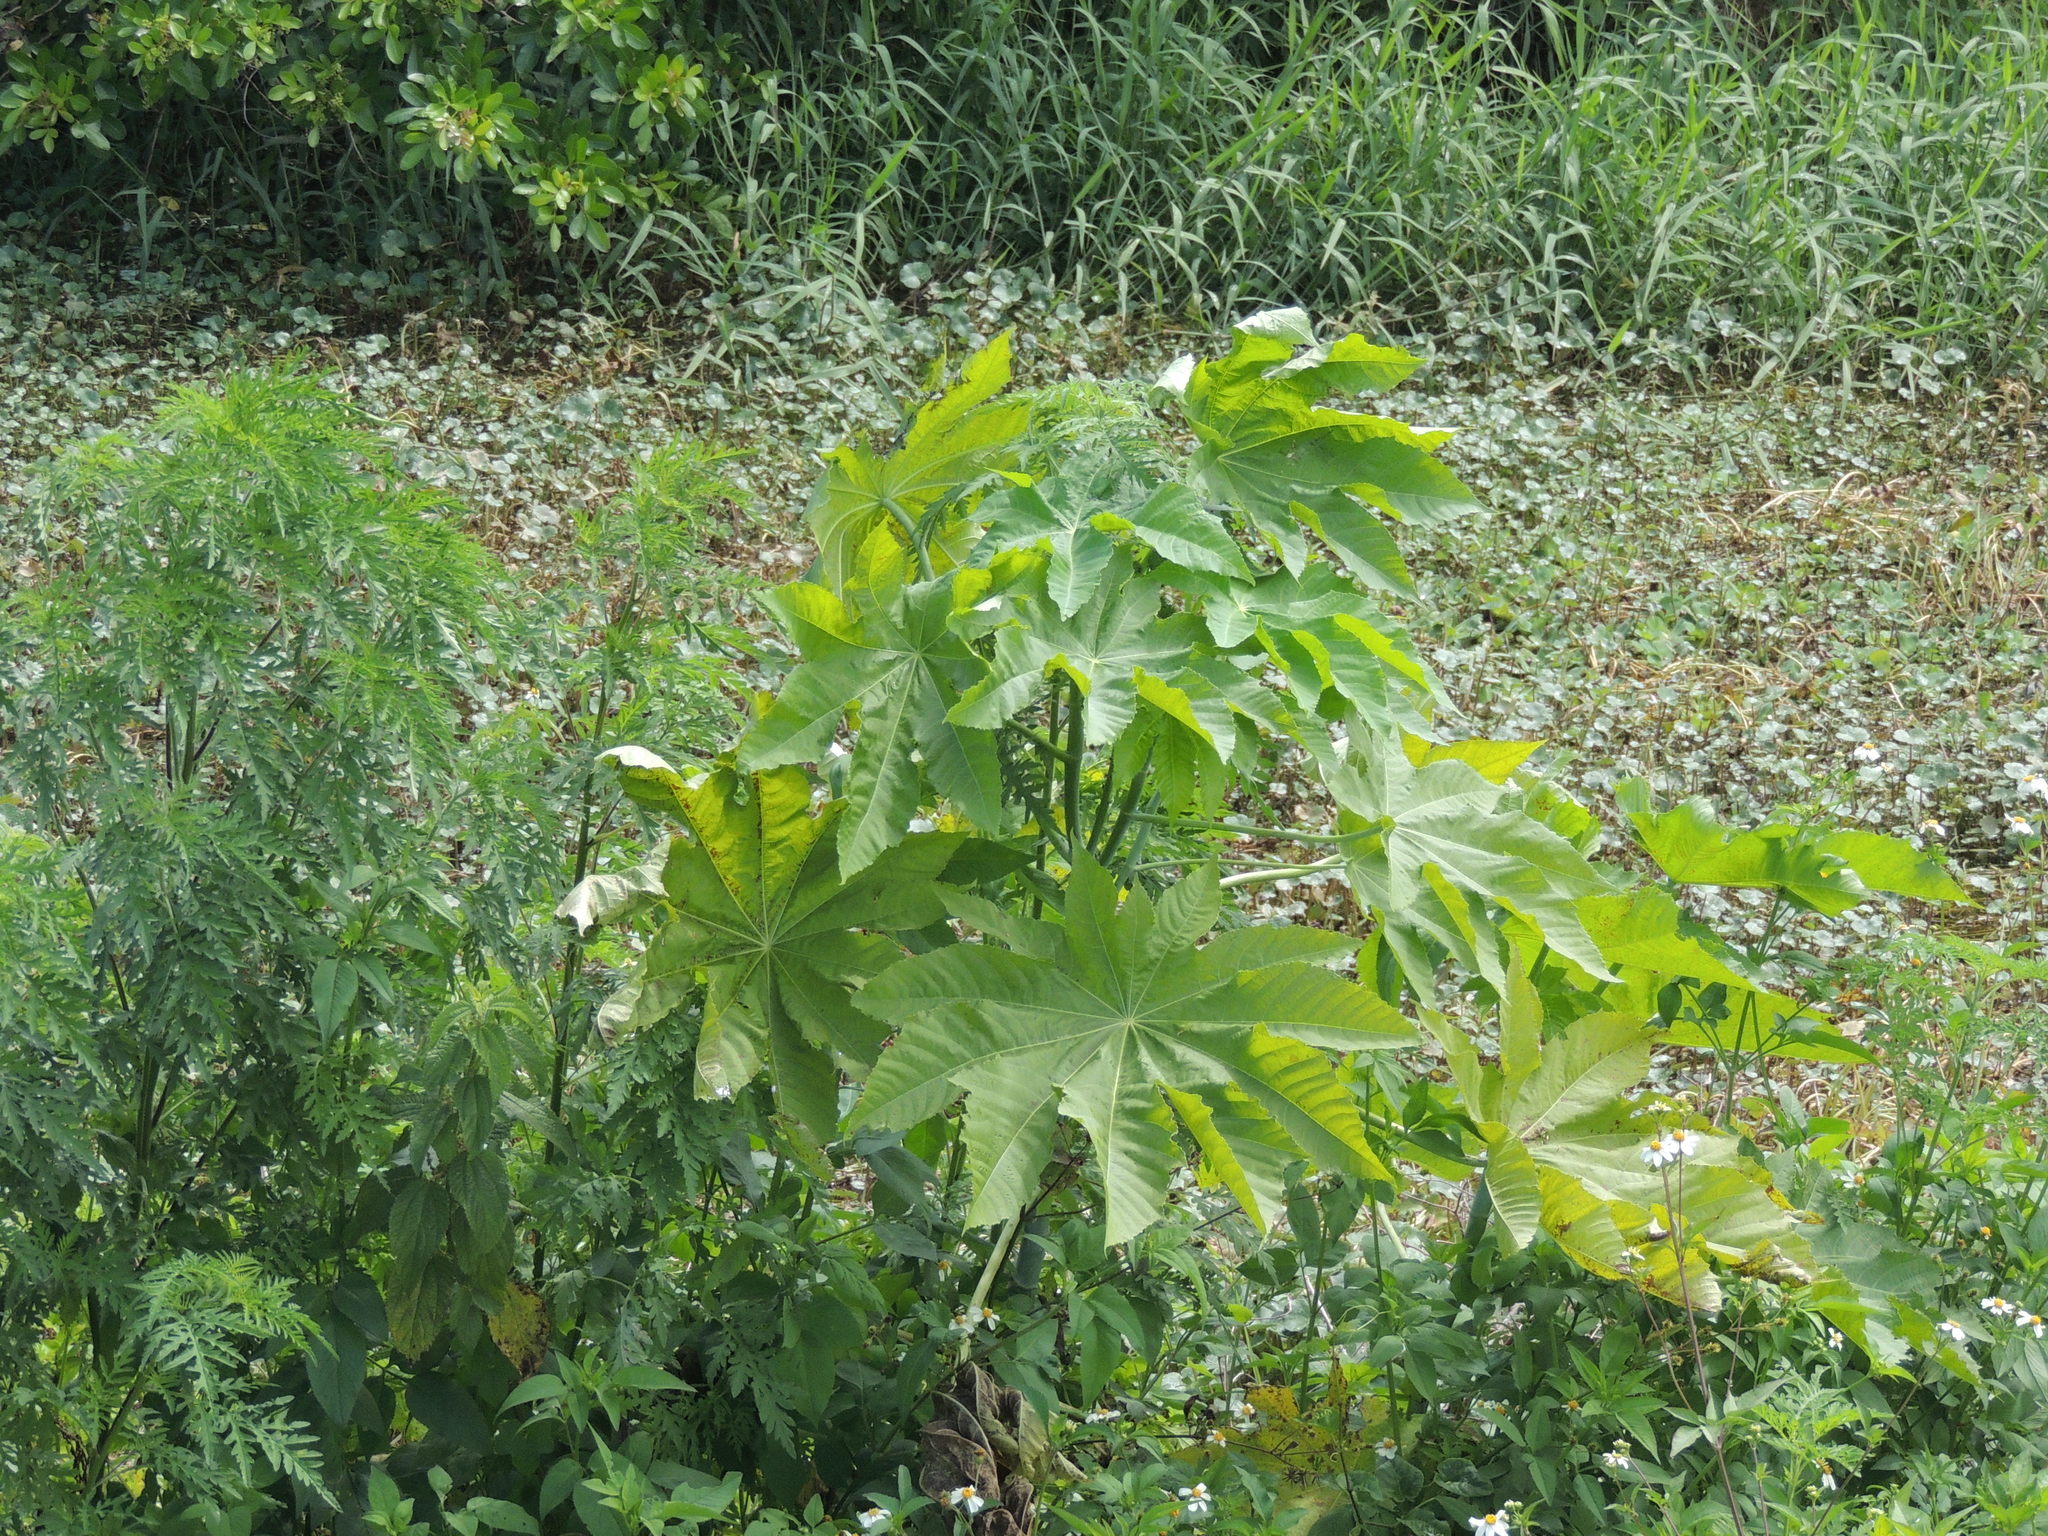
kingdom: Plantae
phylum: Tracheophyta
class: Magnoliopsida
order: Malpighiales
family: Euphorbiaceae
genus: Ricinus
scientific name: Ricinus communis
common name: Castor-oil-plant
